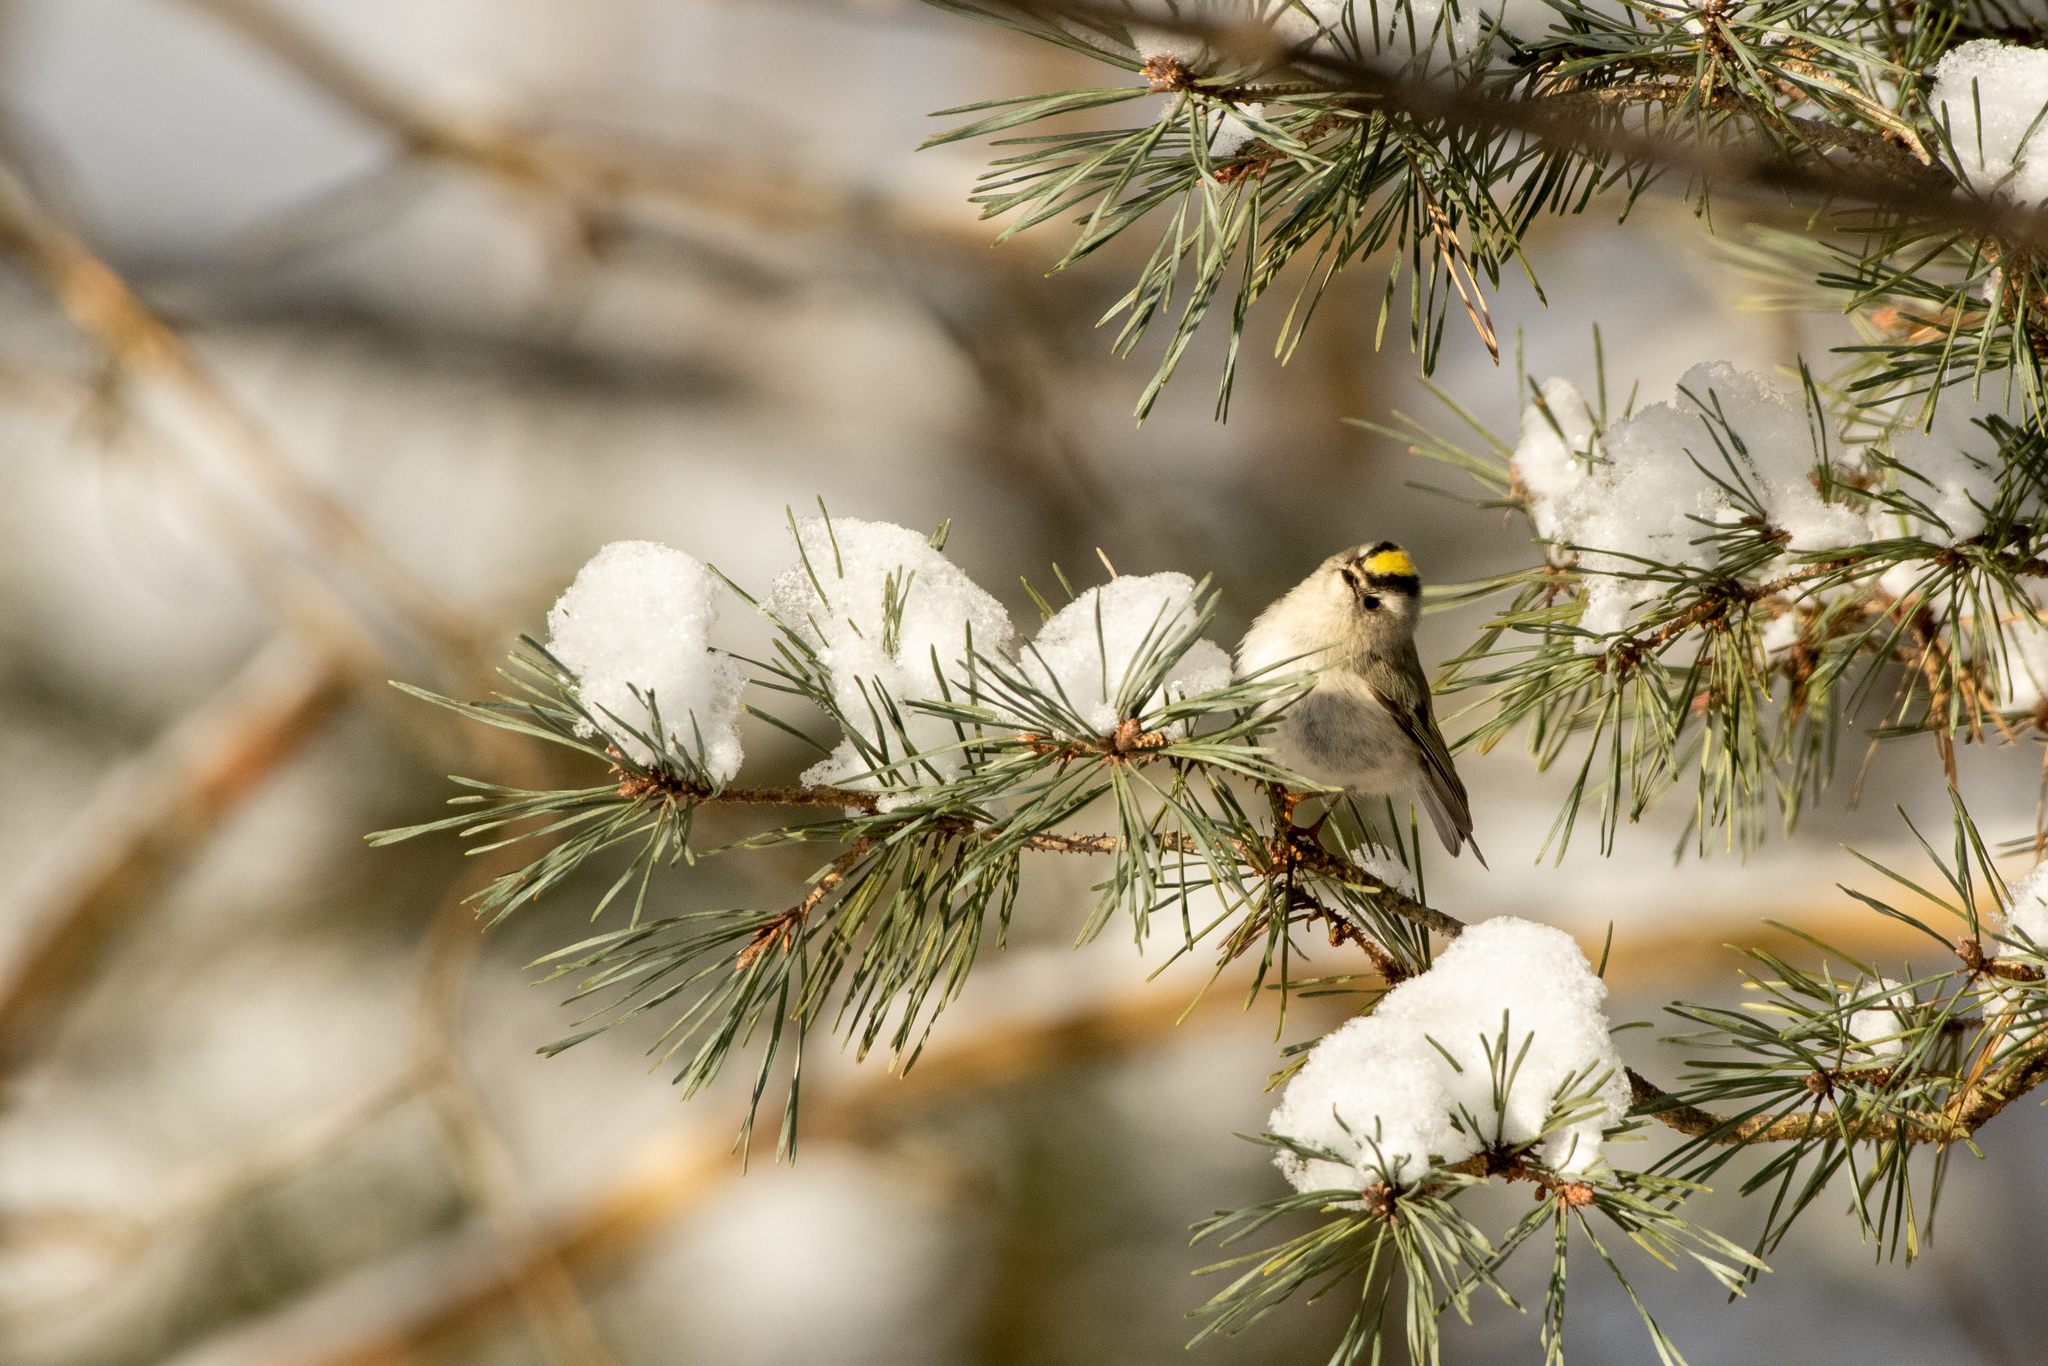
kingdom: Animalia
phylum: Chordata
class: Aves
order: Passeriformes
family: Regulidae
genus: Regulus
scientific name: Regulus satrapa
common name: Golden-crowned kinglet
